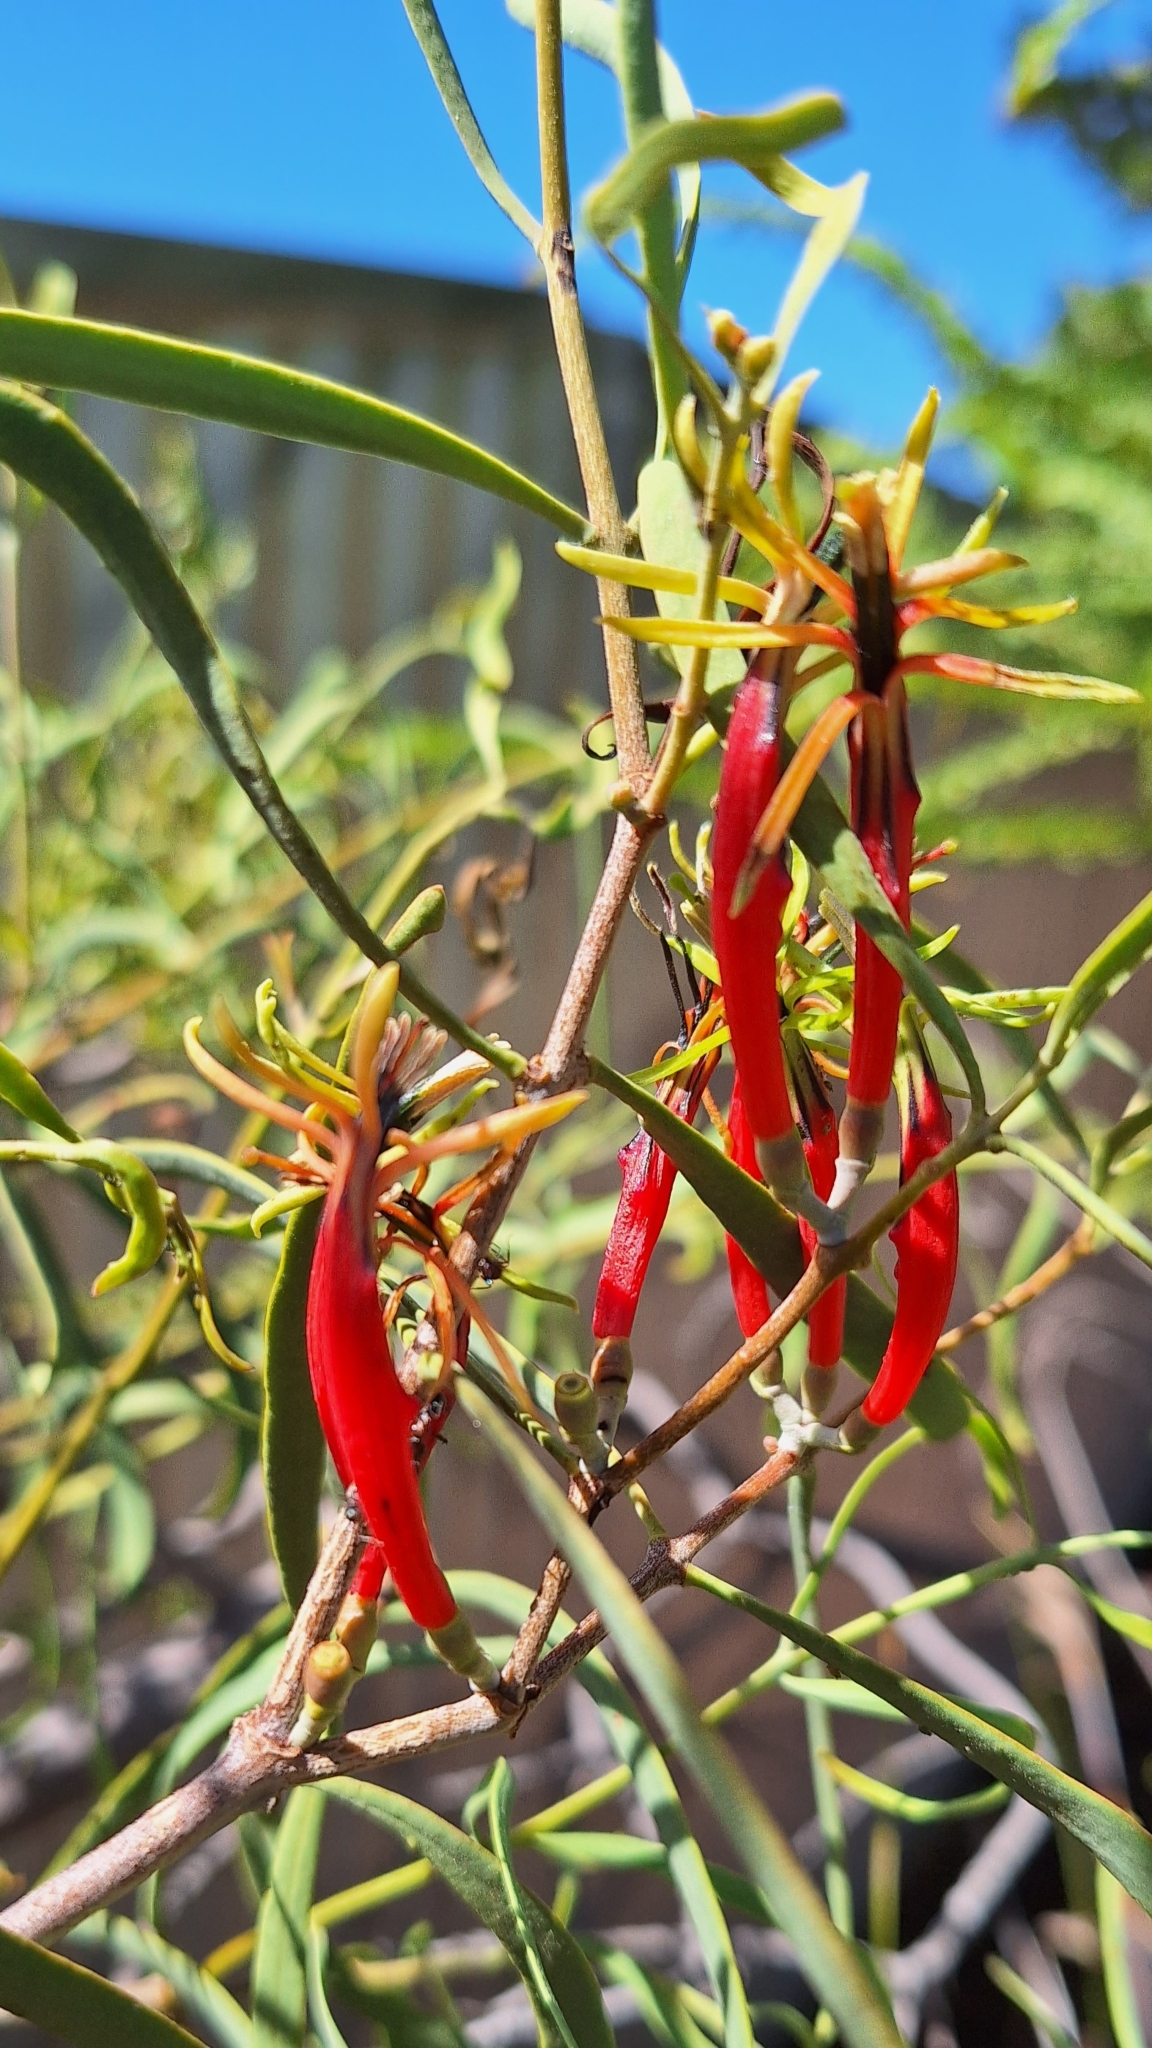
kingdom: Plantae
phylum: Tracheophyta
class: Magnoliopsida
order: Santalales
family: Loranthaceae
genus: Lysiana
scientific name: Lysiana exocarpi
